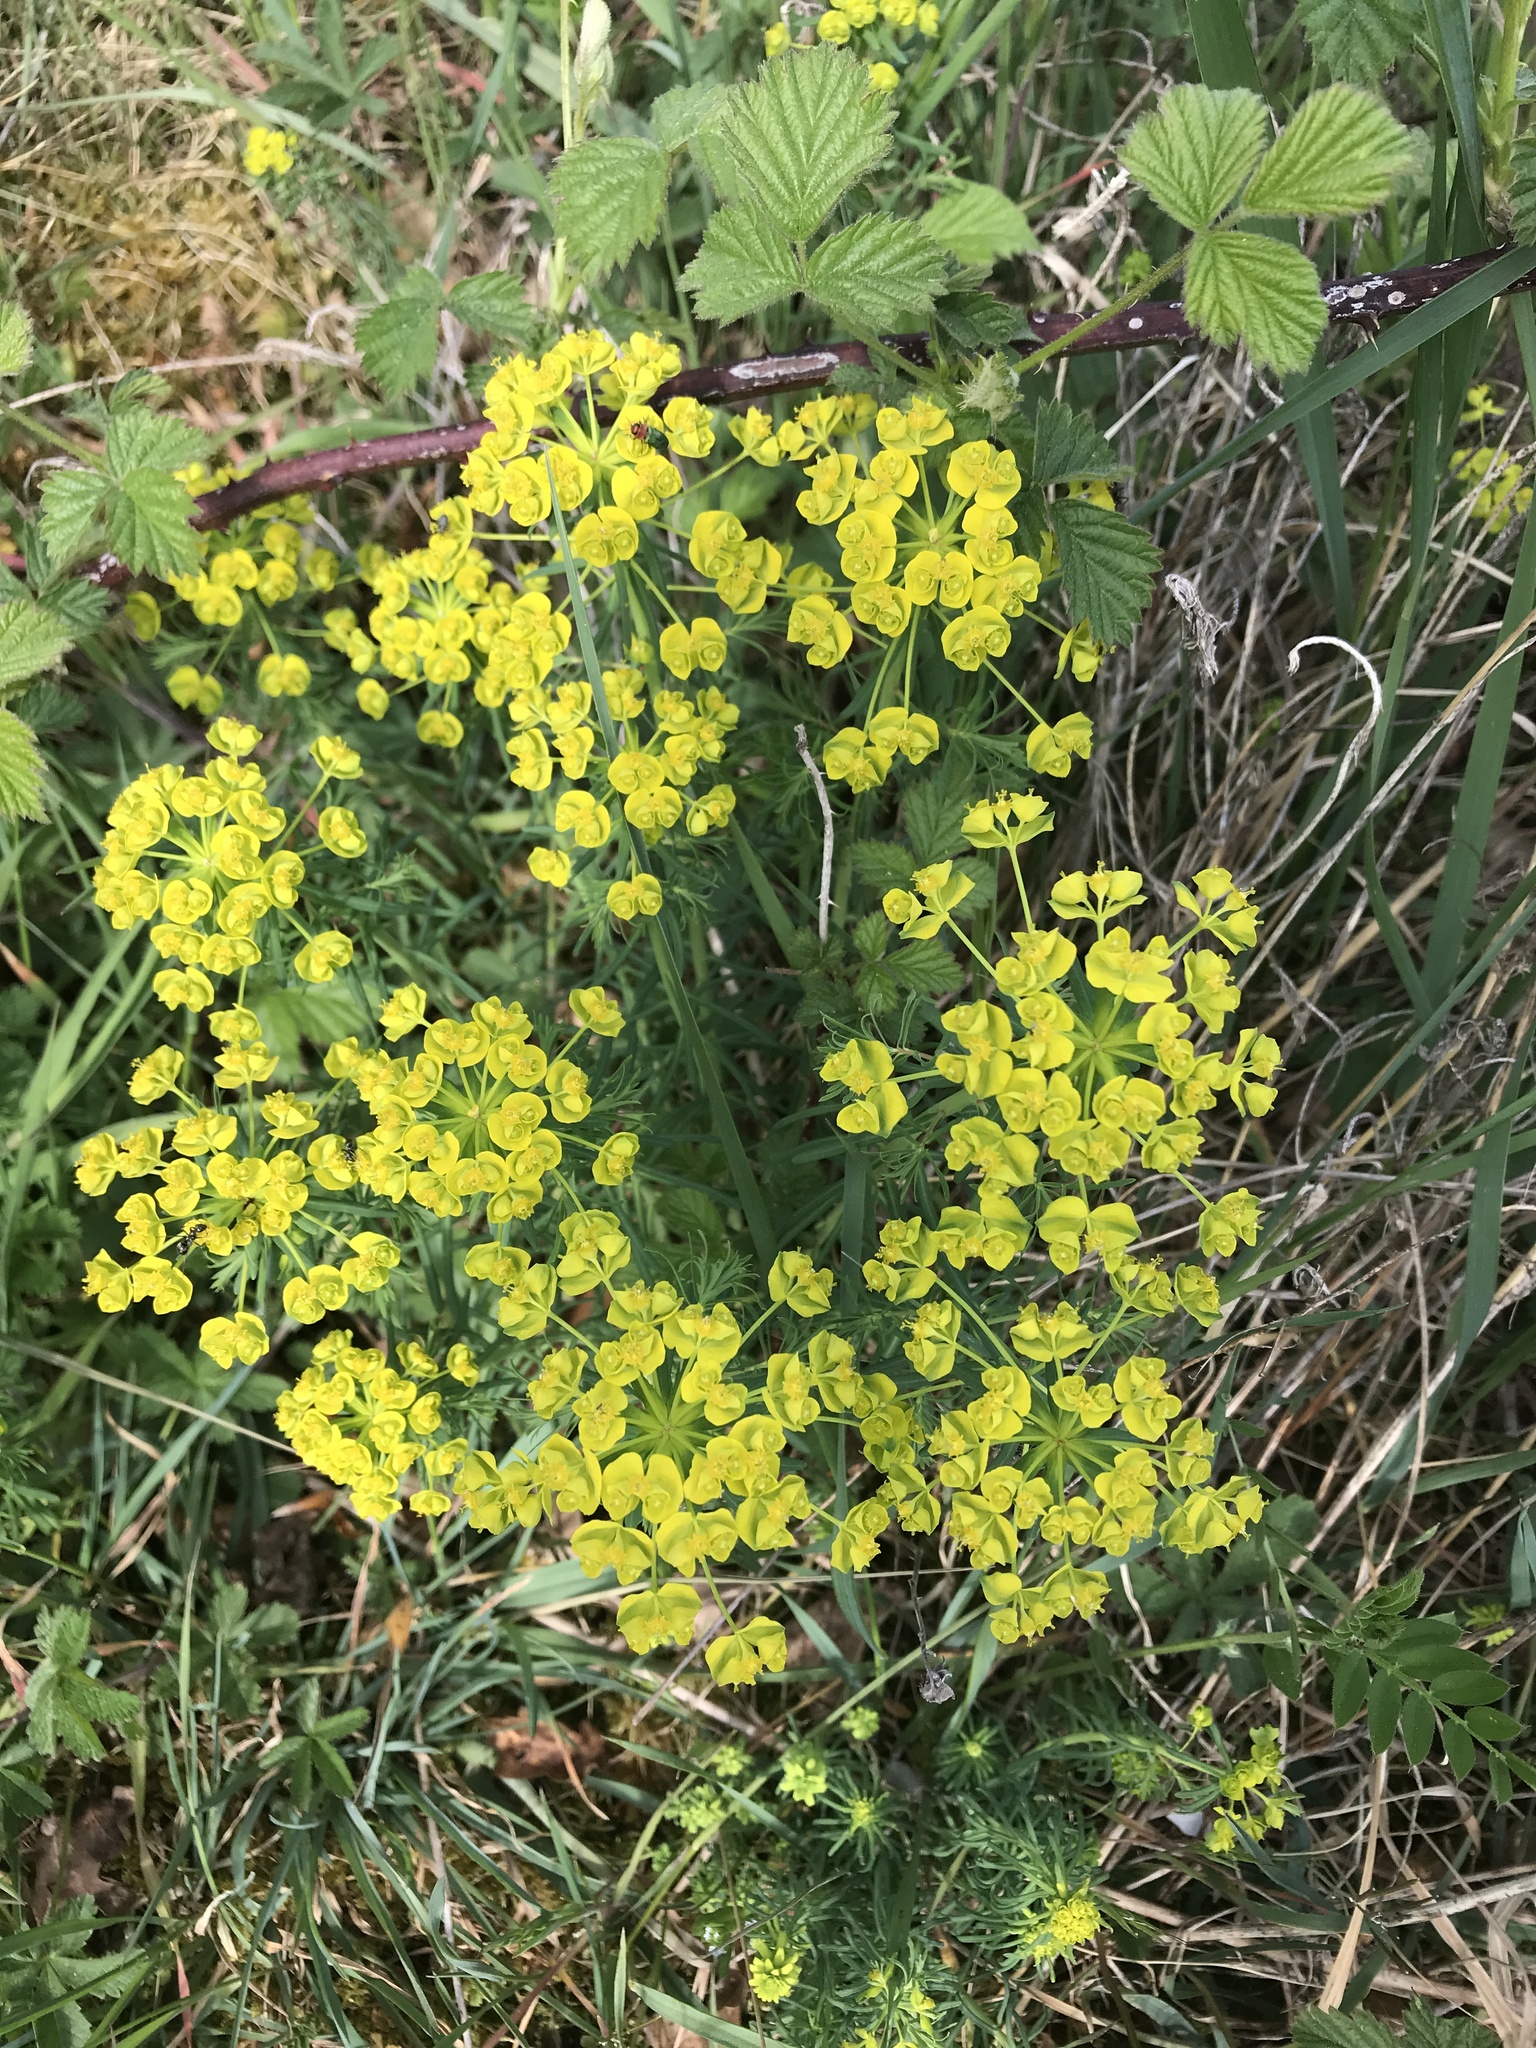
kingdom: Plantae
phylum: Tracheophyta
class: Magnoliopsida
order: Malpighiales
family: Euphorbiaceae
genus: Euphorbia
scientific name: Euphorbia cyparissias
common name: Cypress spurge
